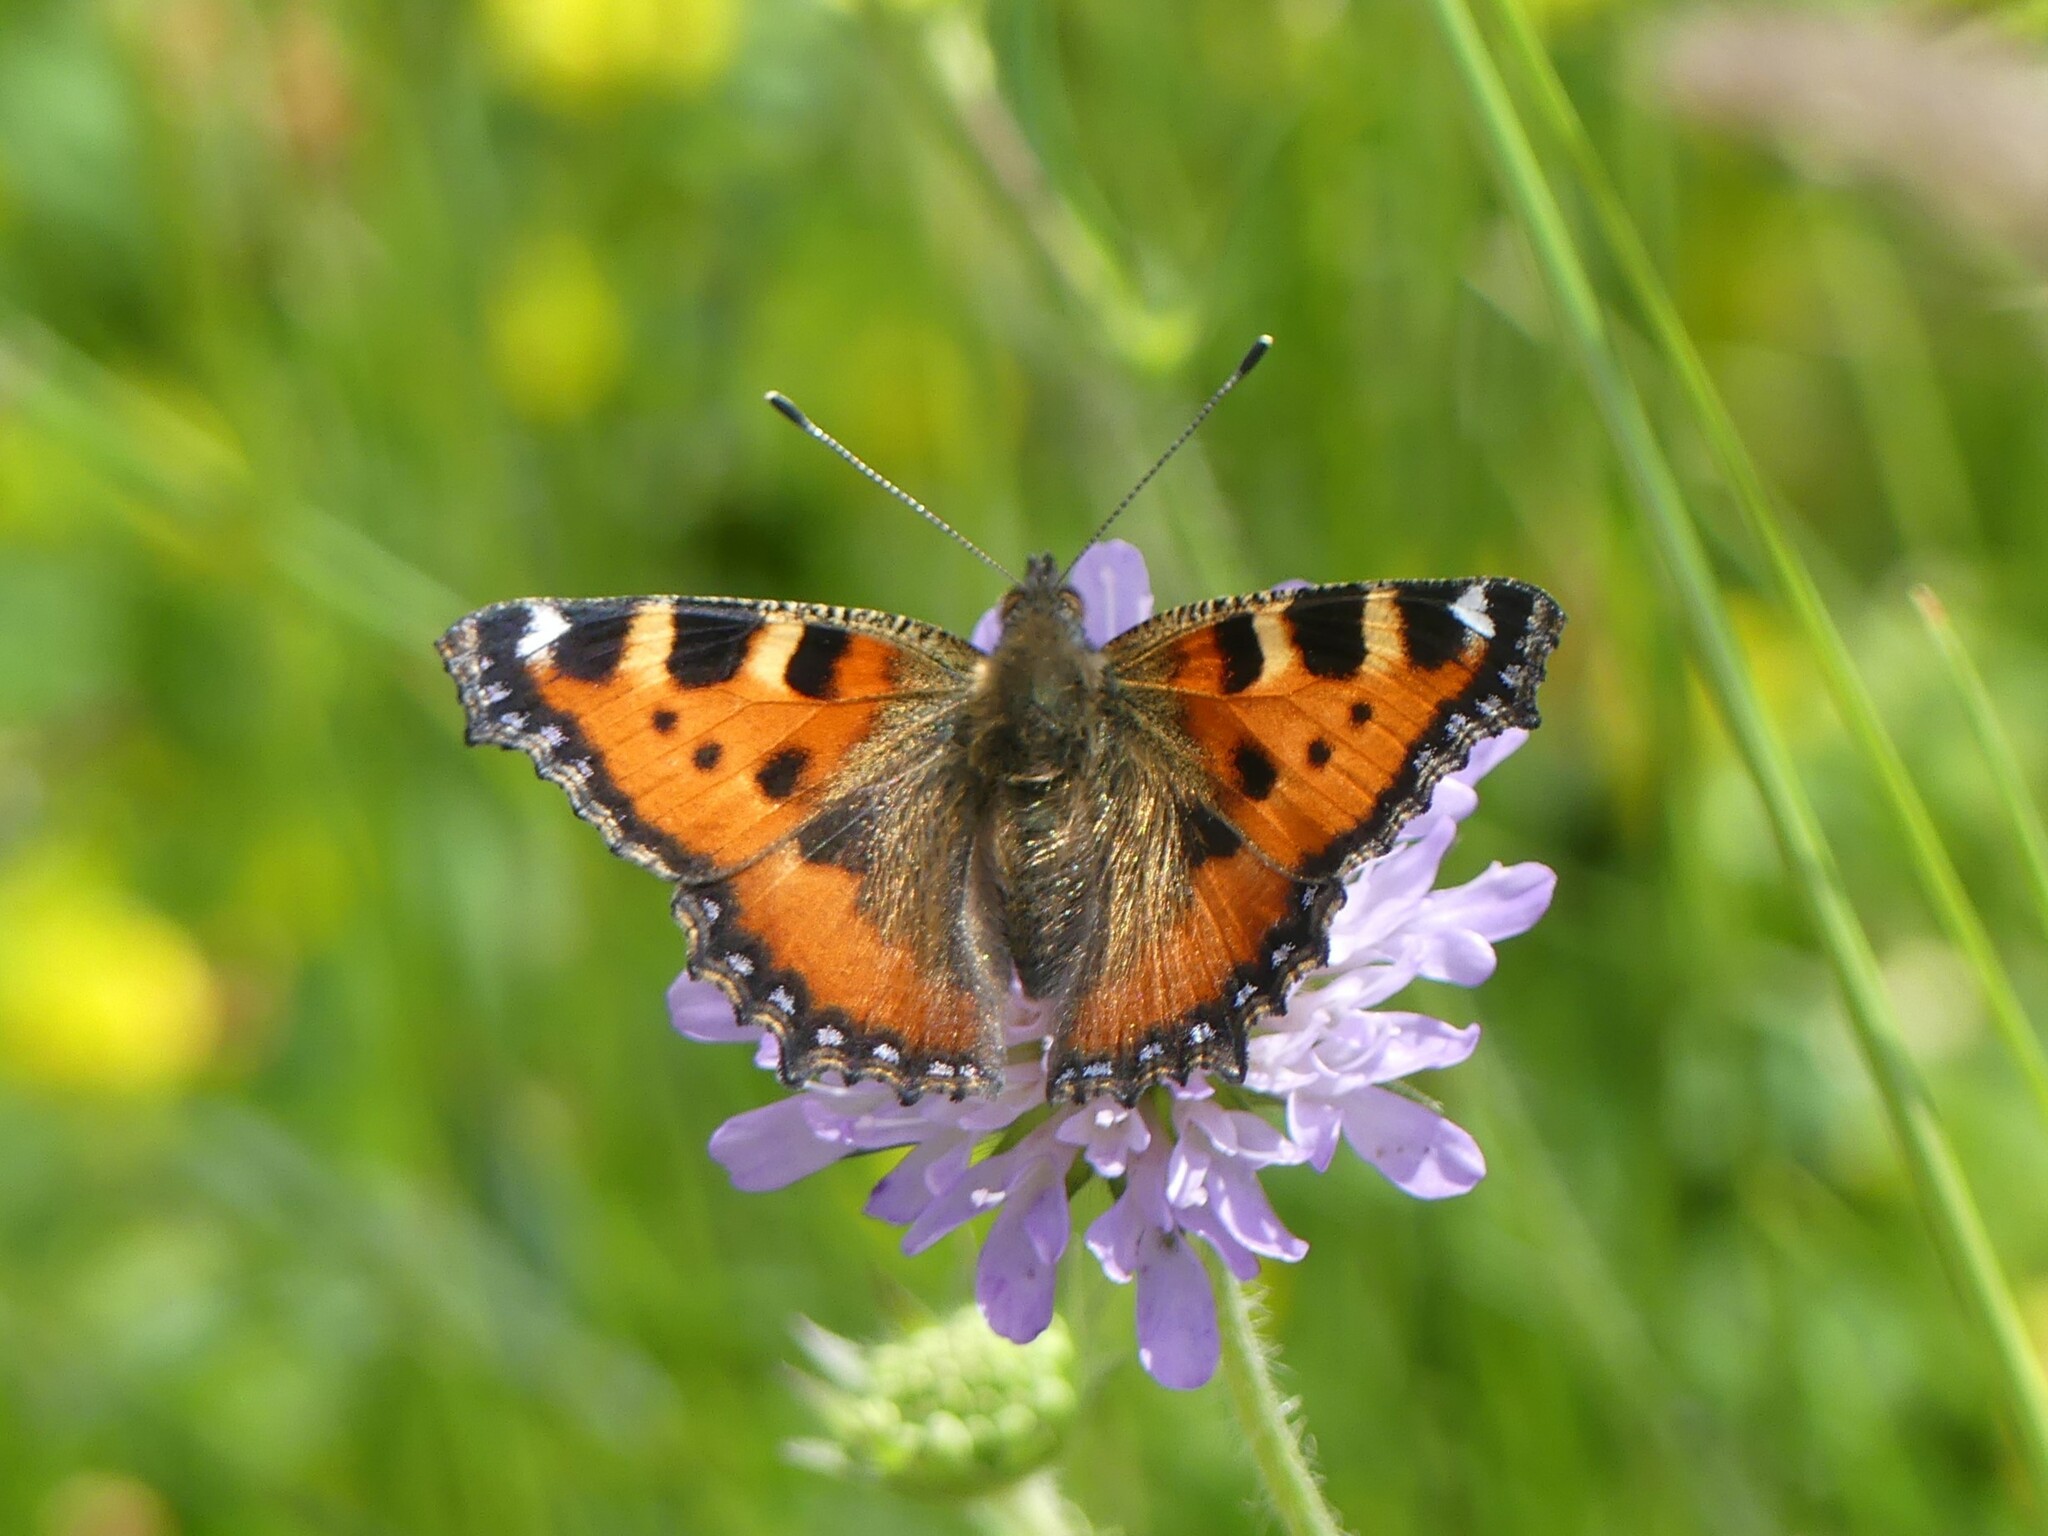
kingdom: Animalia
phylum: Arthropoda
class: Insecta
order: Lepidoptera
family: Nymphalidae
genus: Aglais
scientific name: Aglais urticae
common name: Small tortoiseshell
